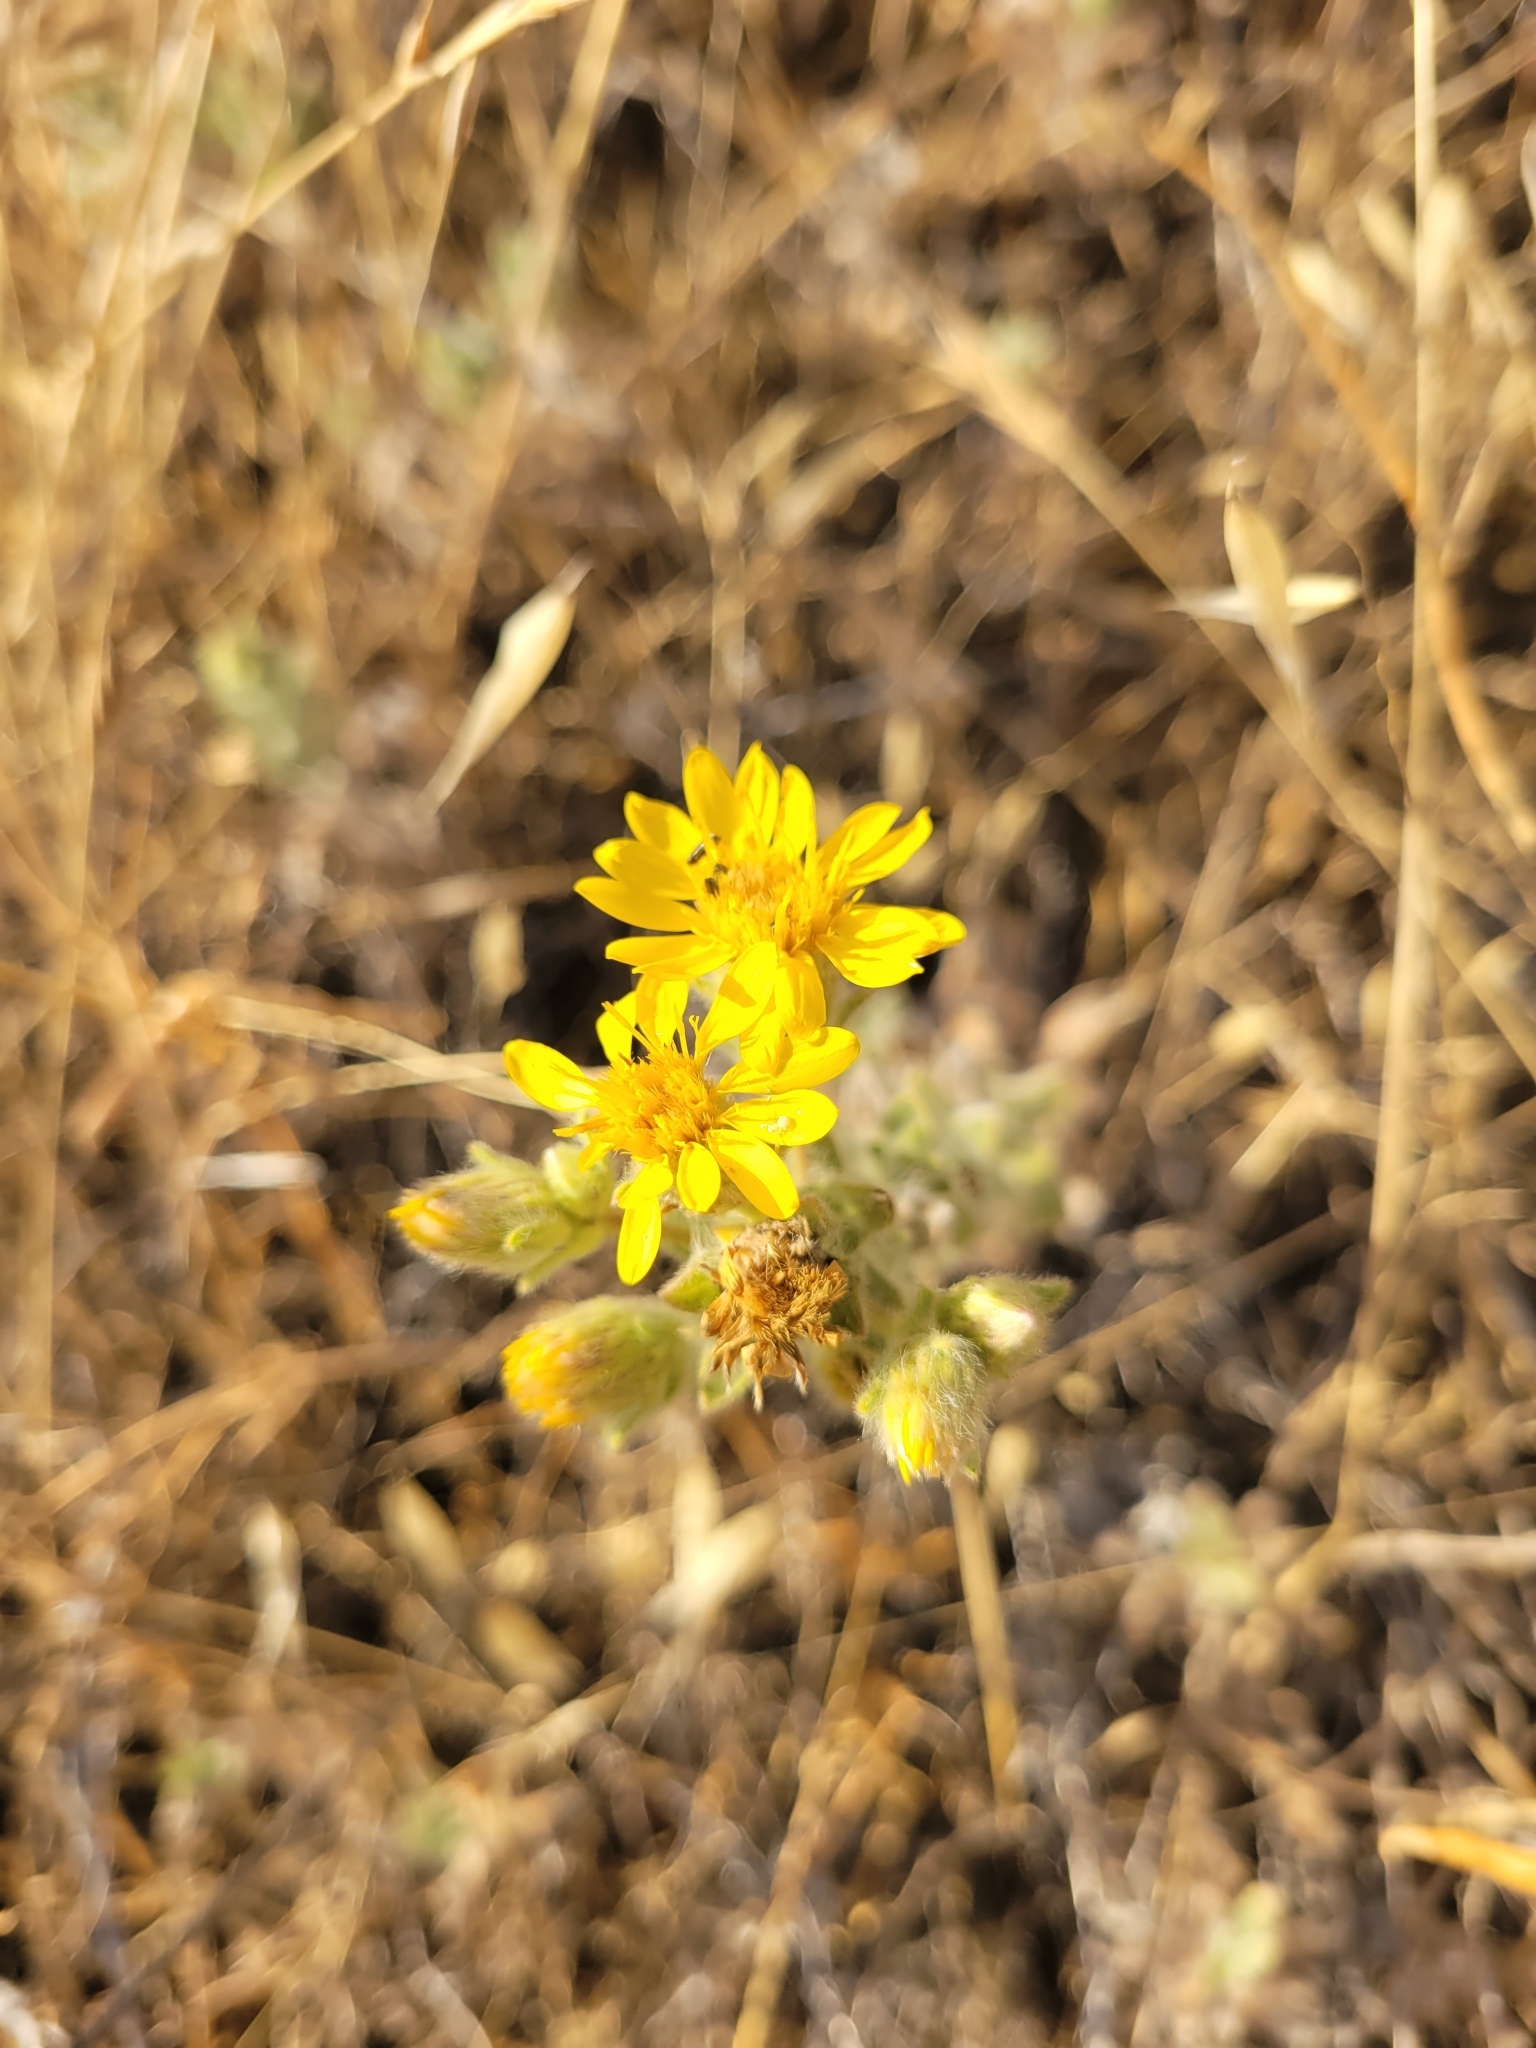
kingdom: Plantae
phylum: Tracheophyta
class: Magnoliopsida
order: Asterales
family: Asteraceae
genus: Heterotheca
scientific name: Heterotheca sessiliflora
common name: Sessile-flower golden-aster
